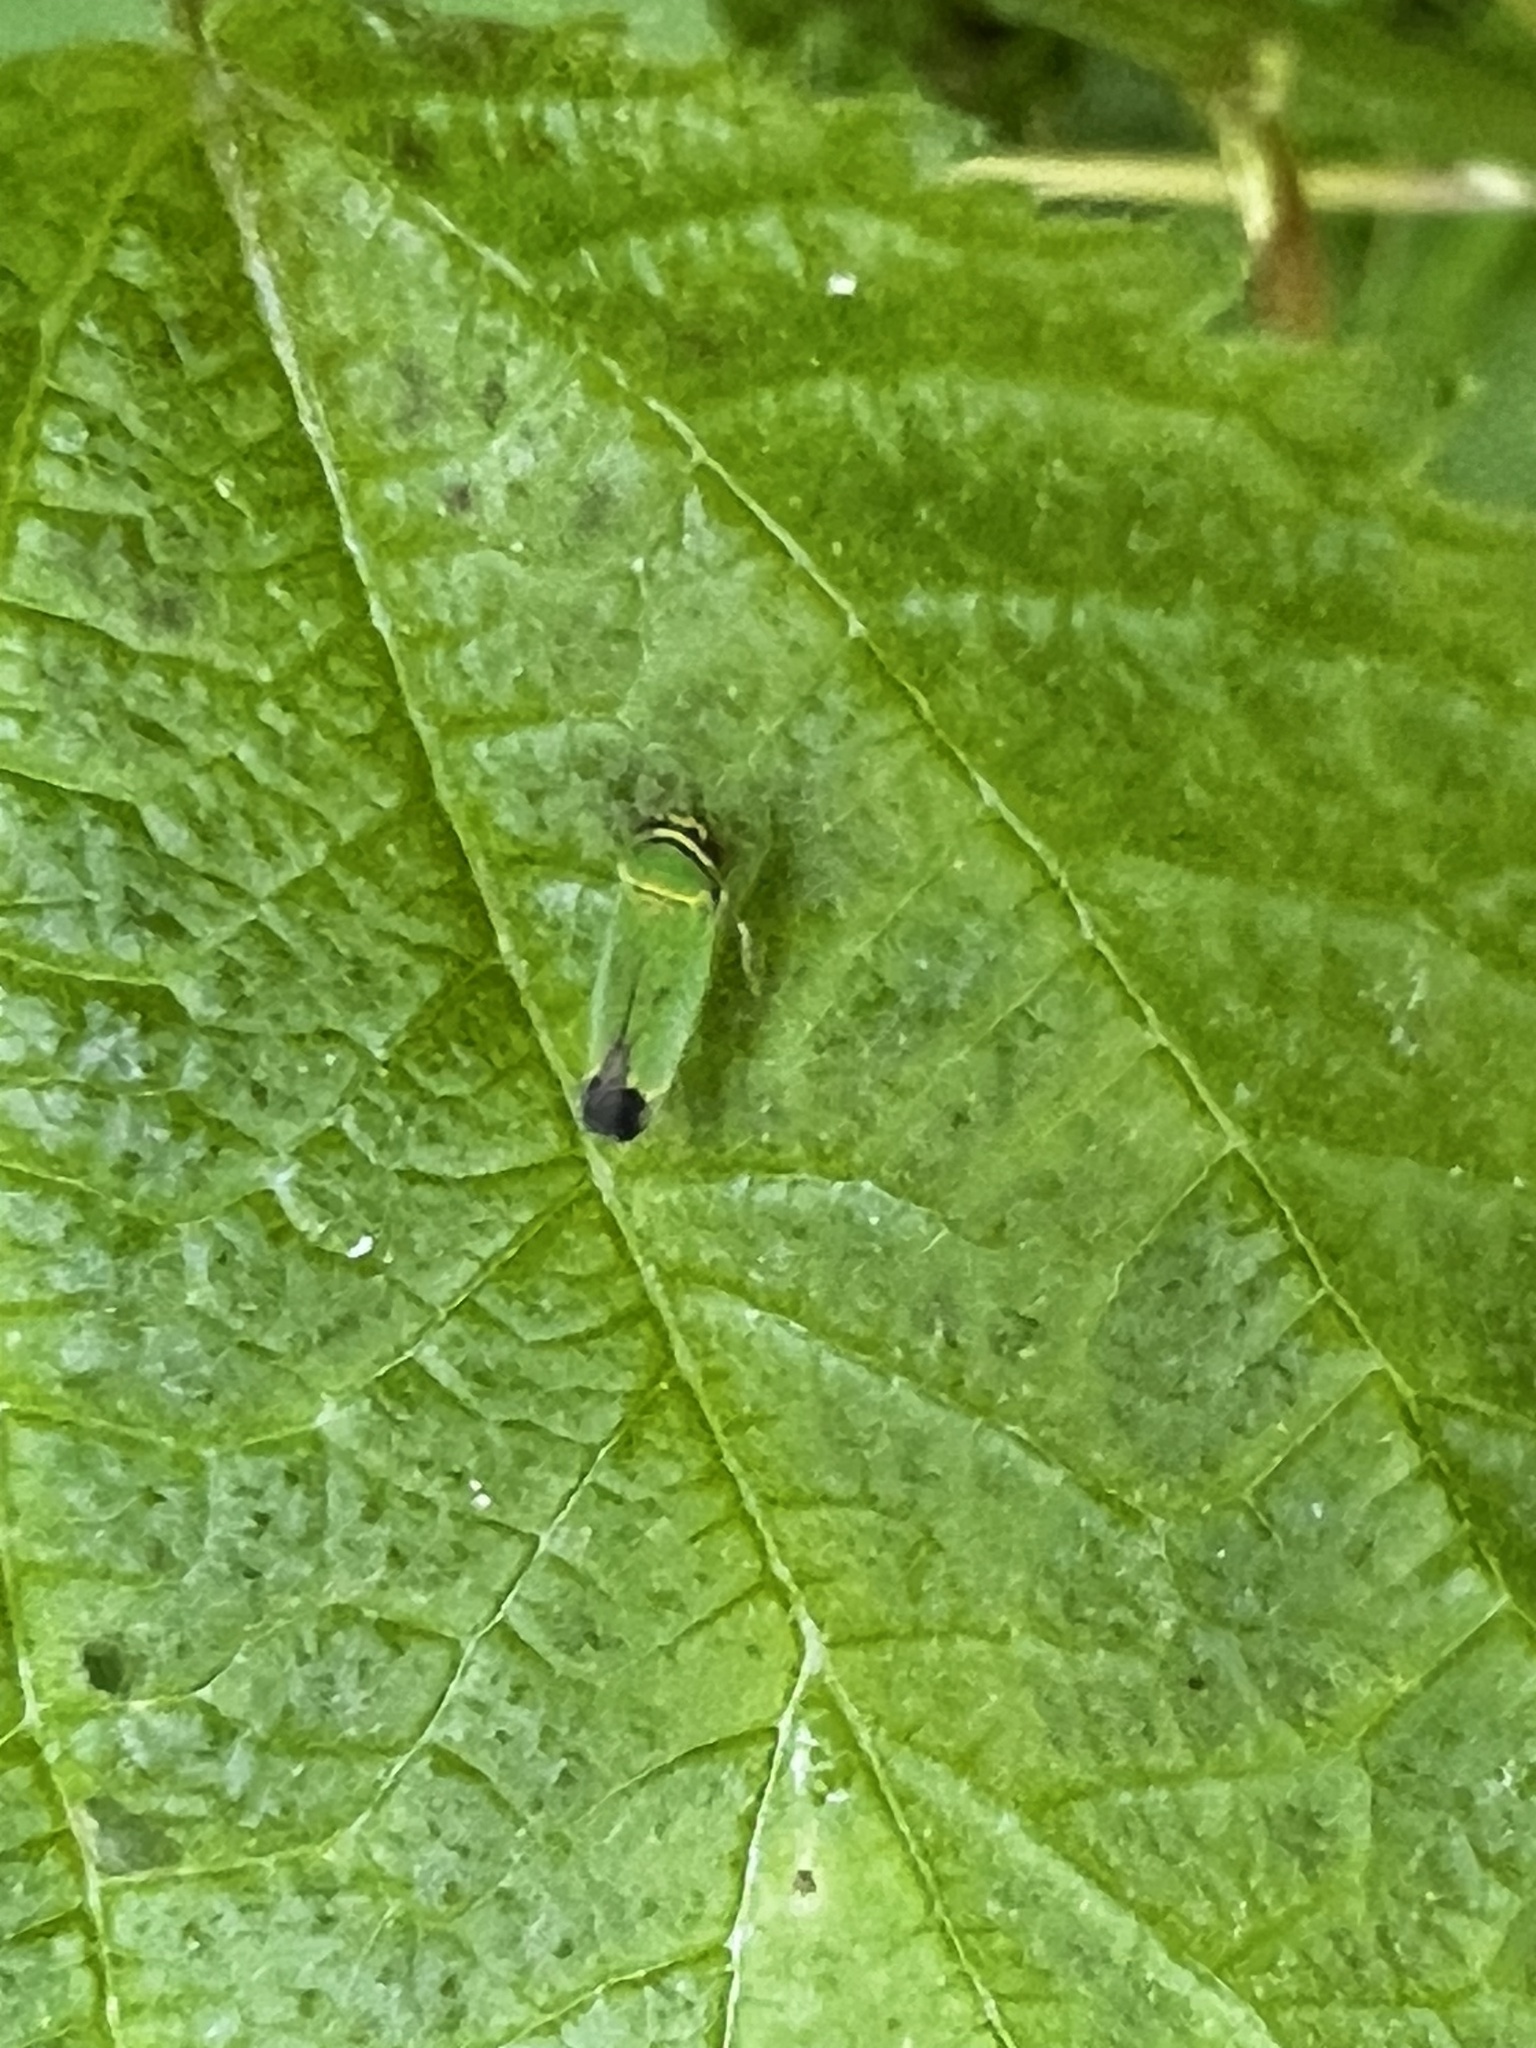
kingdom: Animalia
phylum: Arthropoda
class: Insecta
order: Hemiptera
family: Cicadellidae
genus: Tylozygus
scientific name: Tylozygus geometricus
